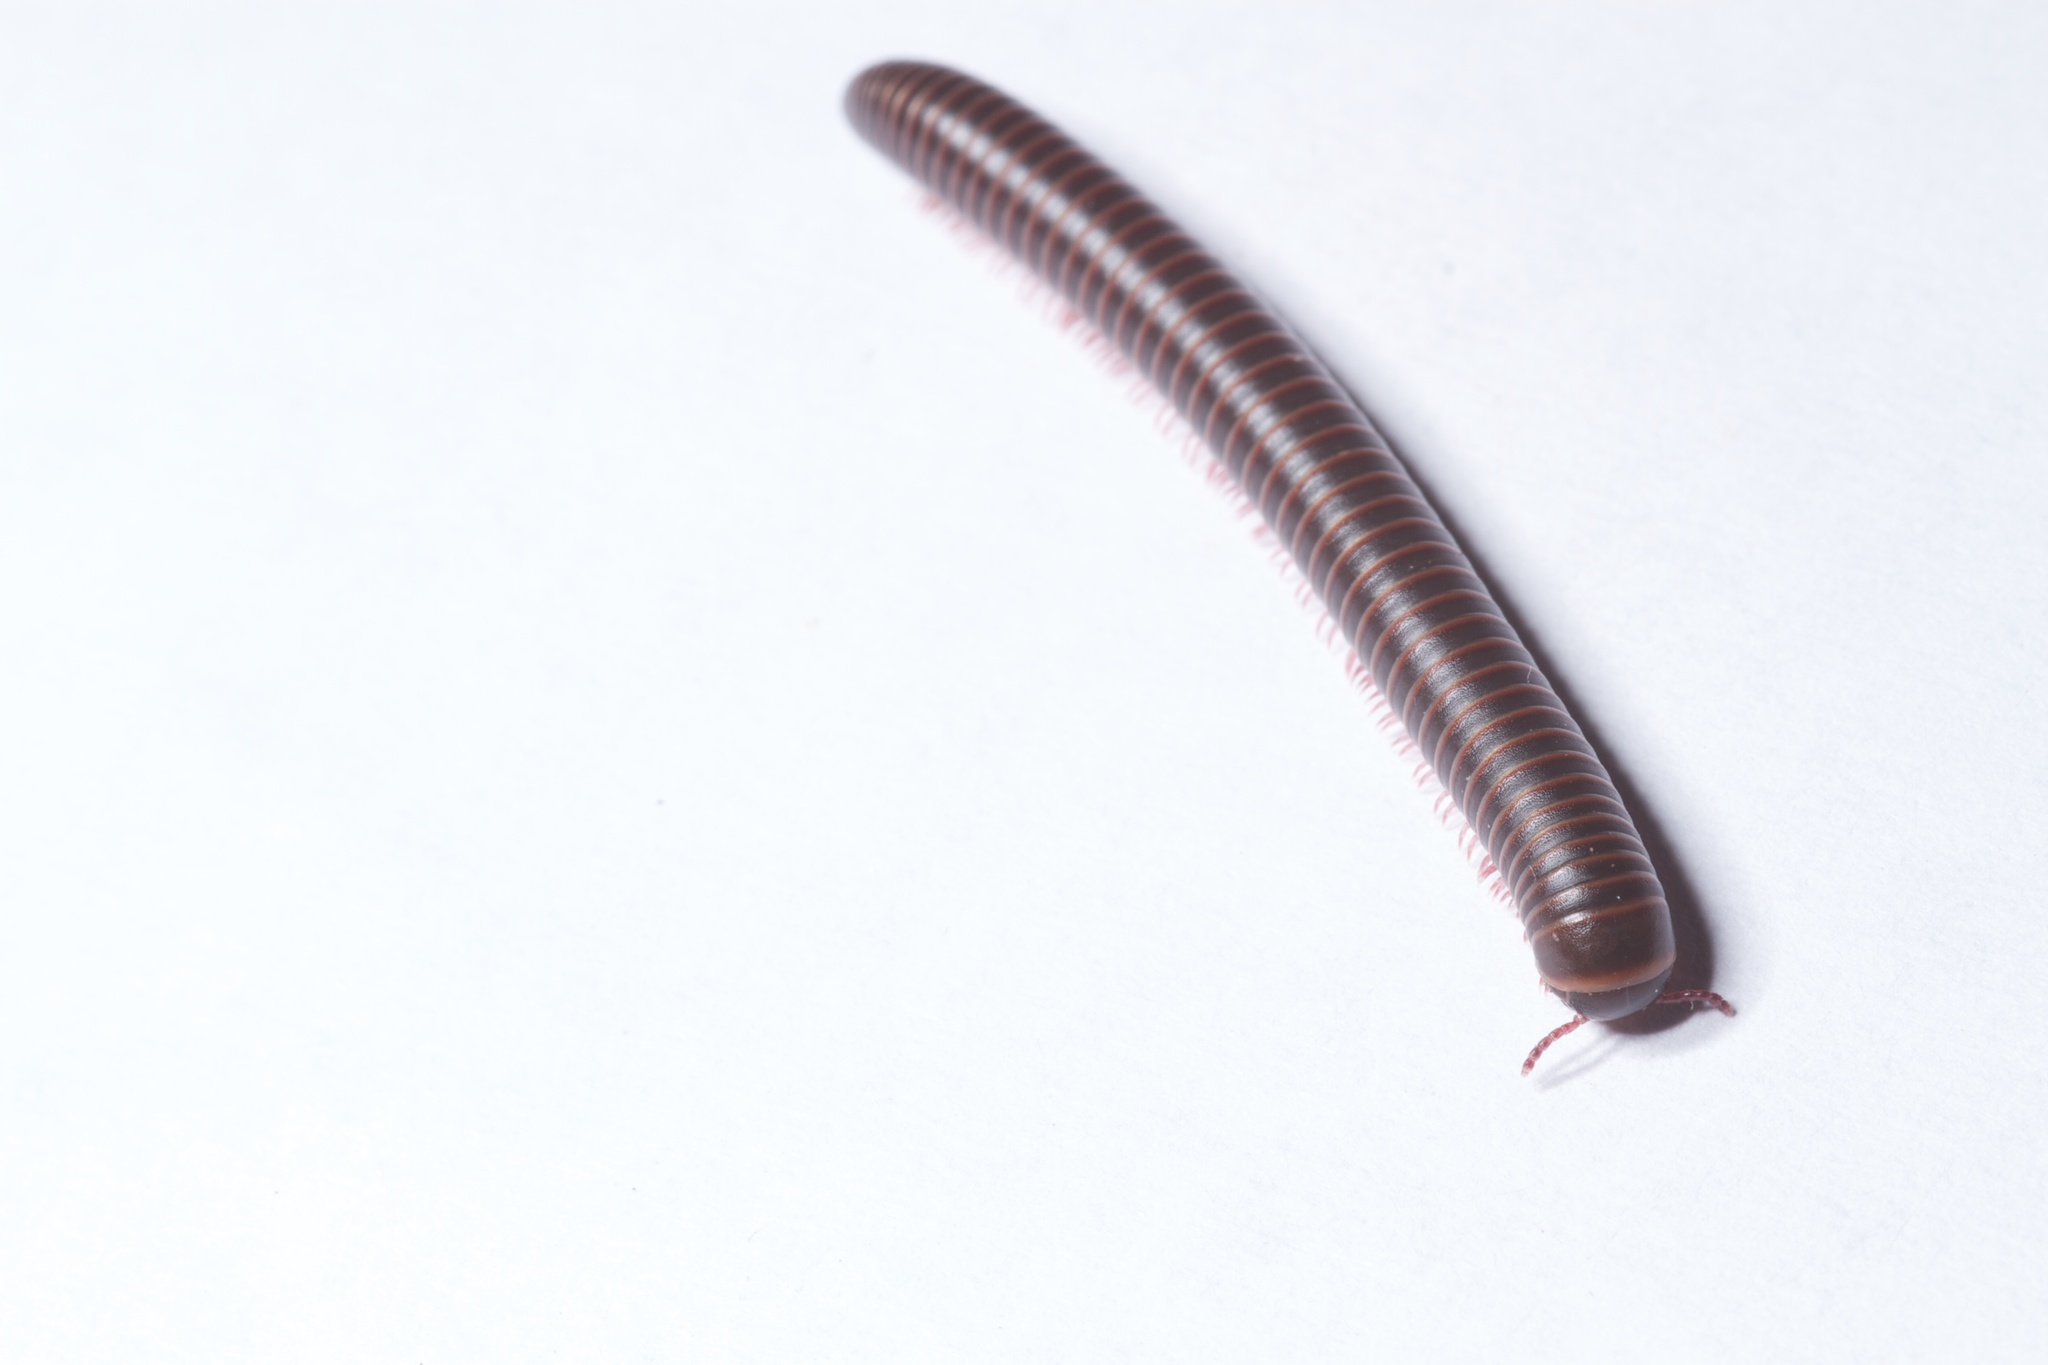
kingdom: Animalia
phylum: Arthropoda
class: Diplopoda
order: Spirobolida
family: Spirobolidae
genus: Narceus
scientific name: Narceus
